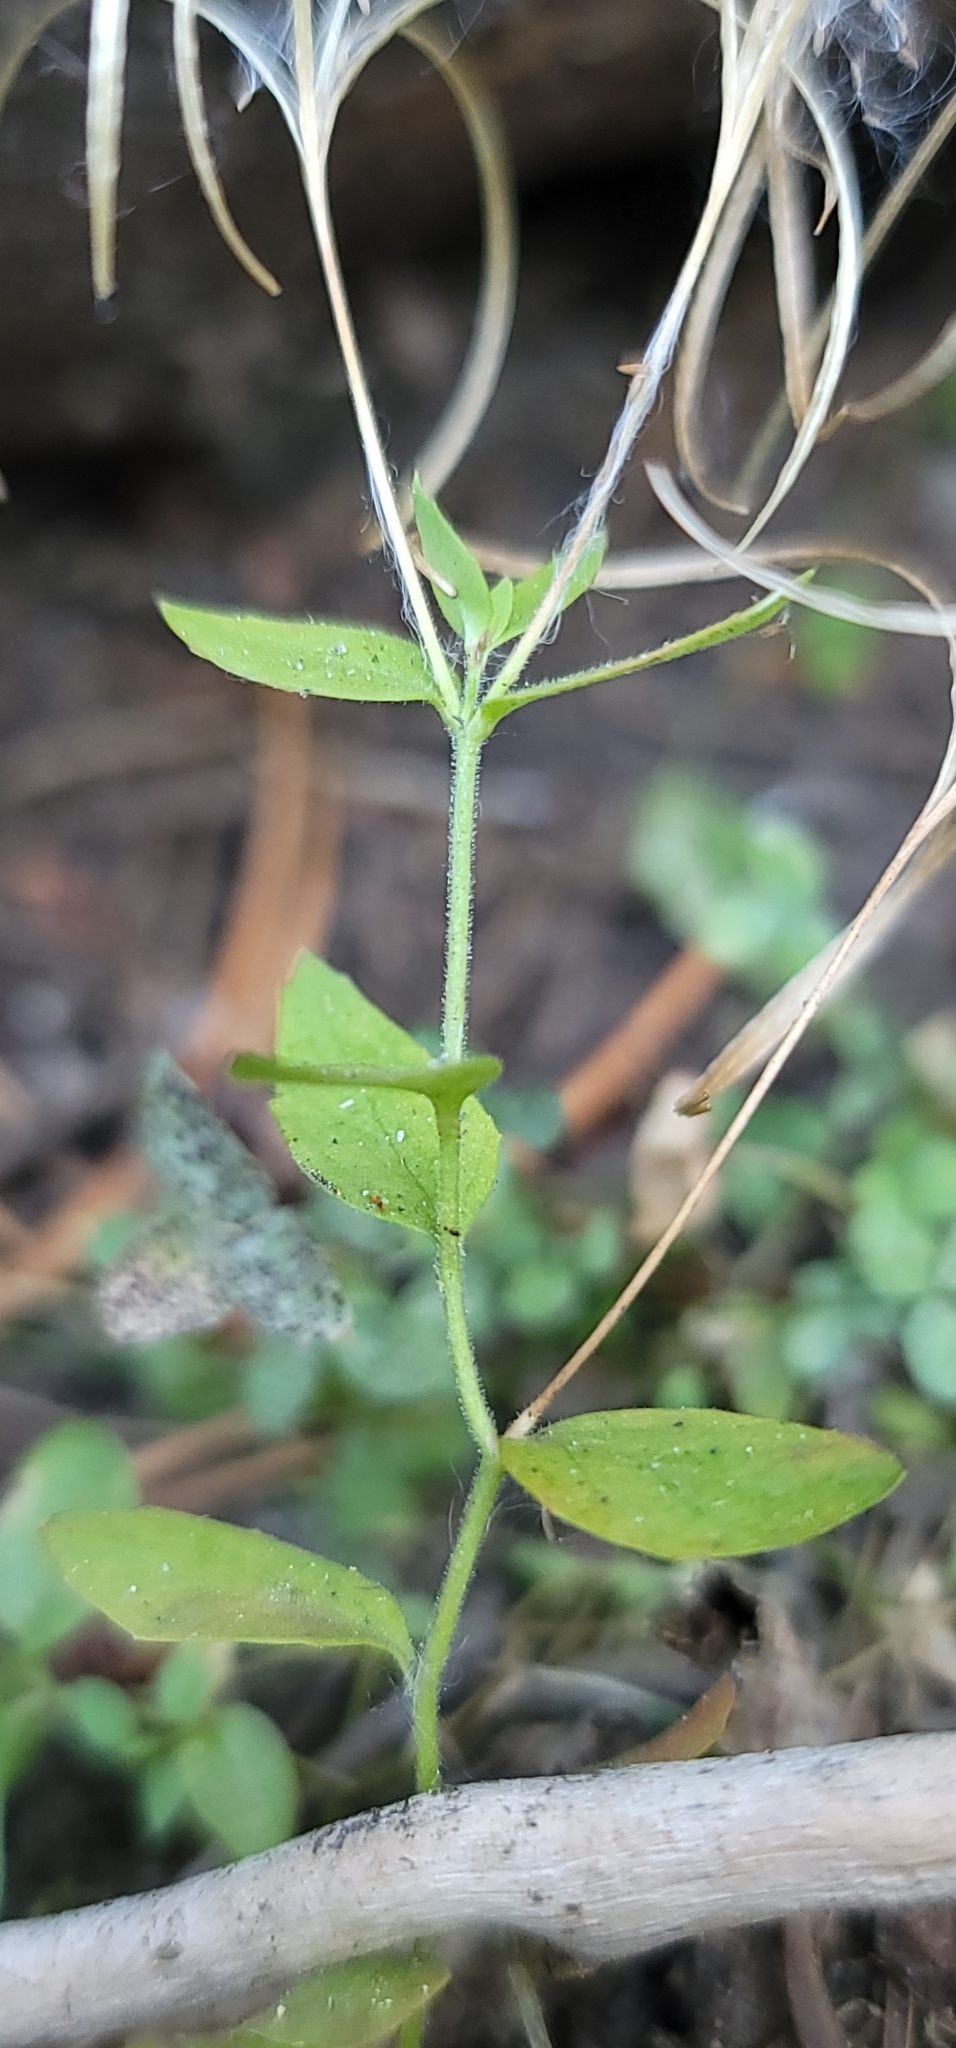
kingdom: Plantae
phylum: Tracheophyta
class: Magnoliopsida
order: Myrtales
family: Onagraceae
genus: Epilobium
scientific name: Epilobium howellii
